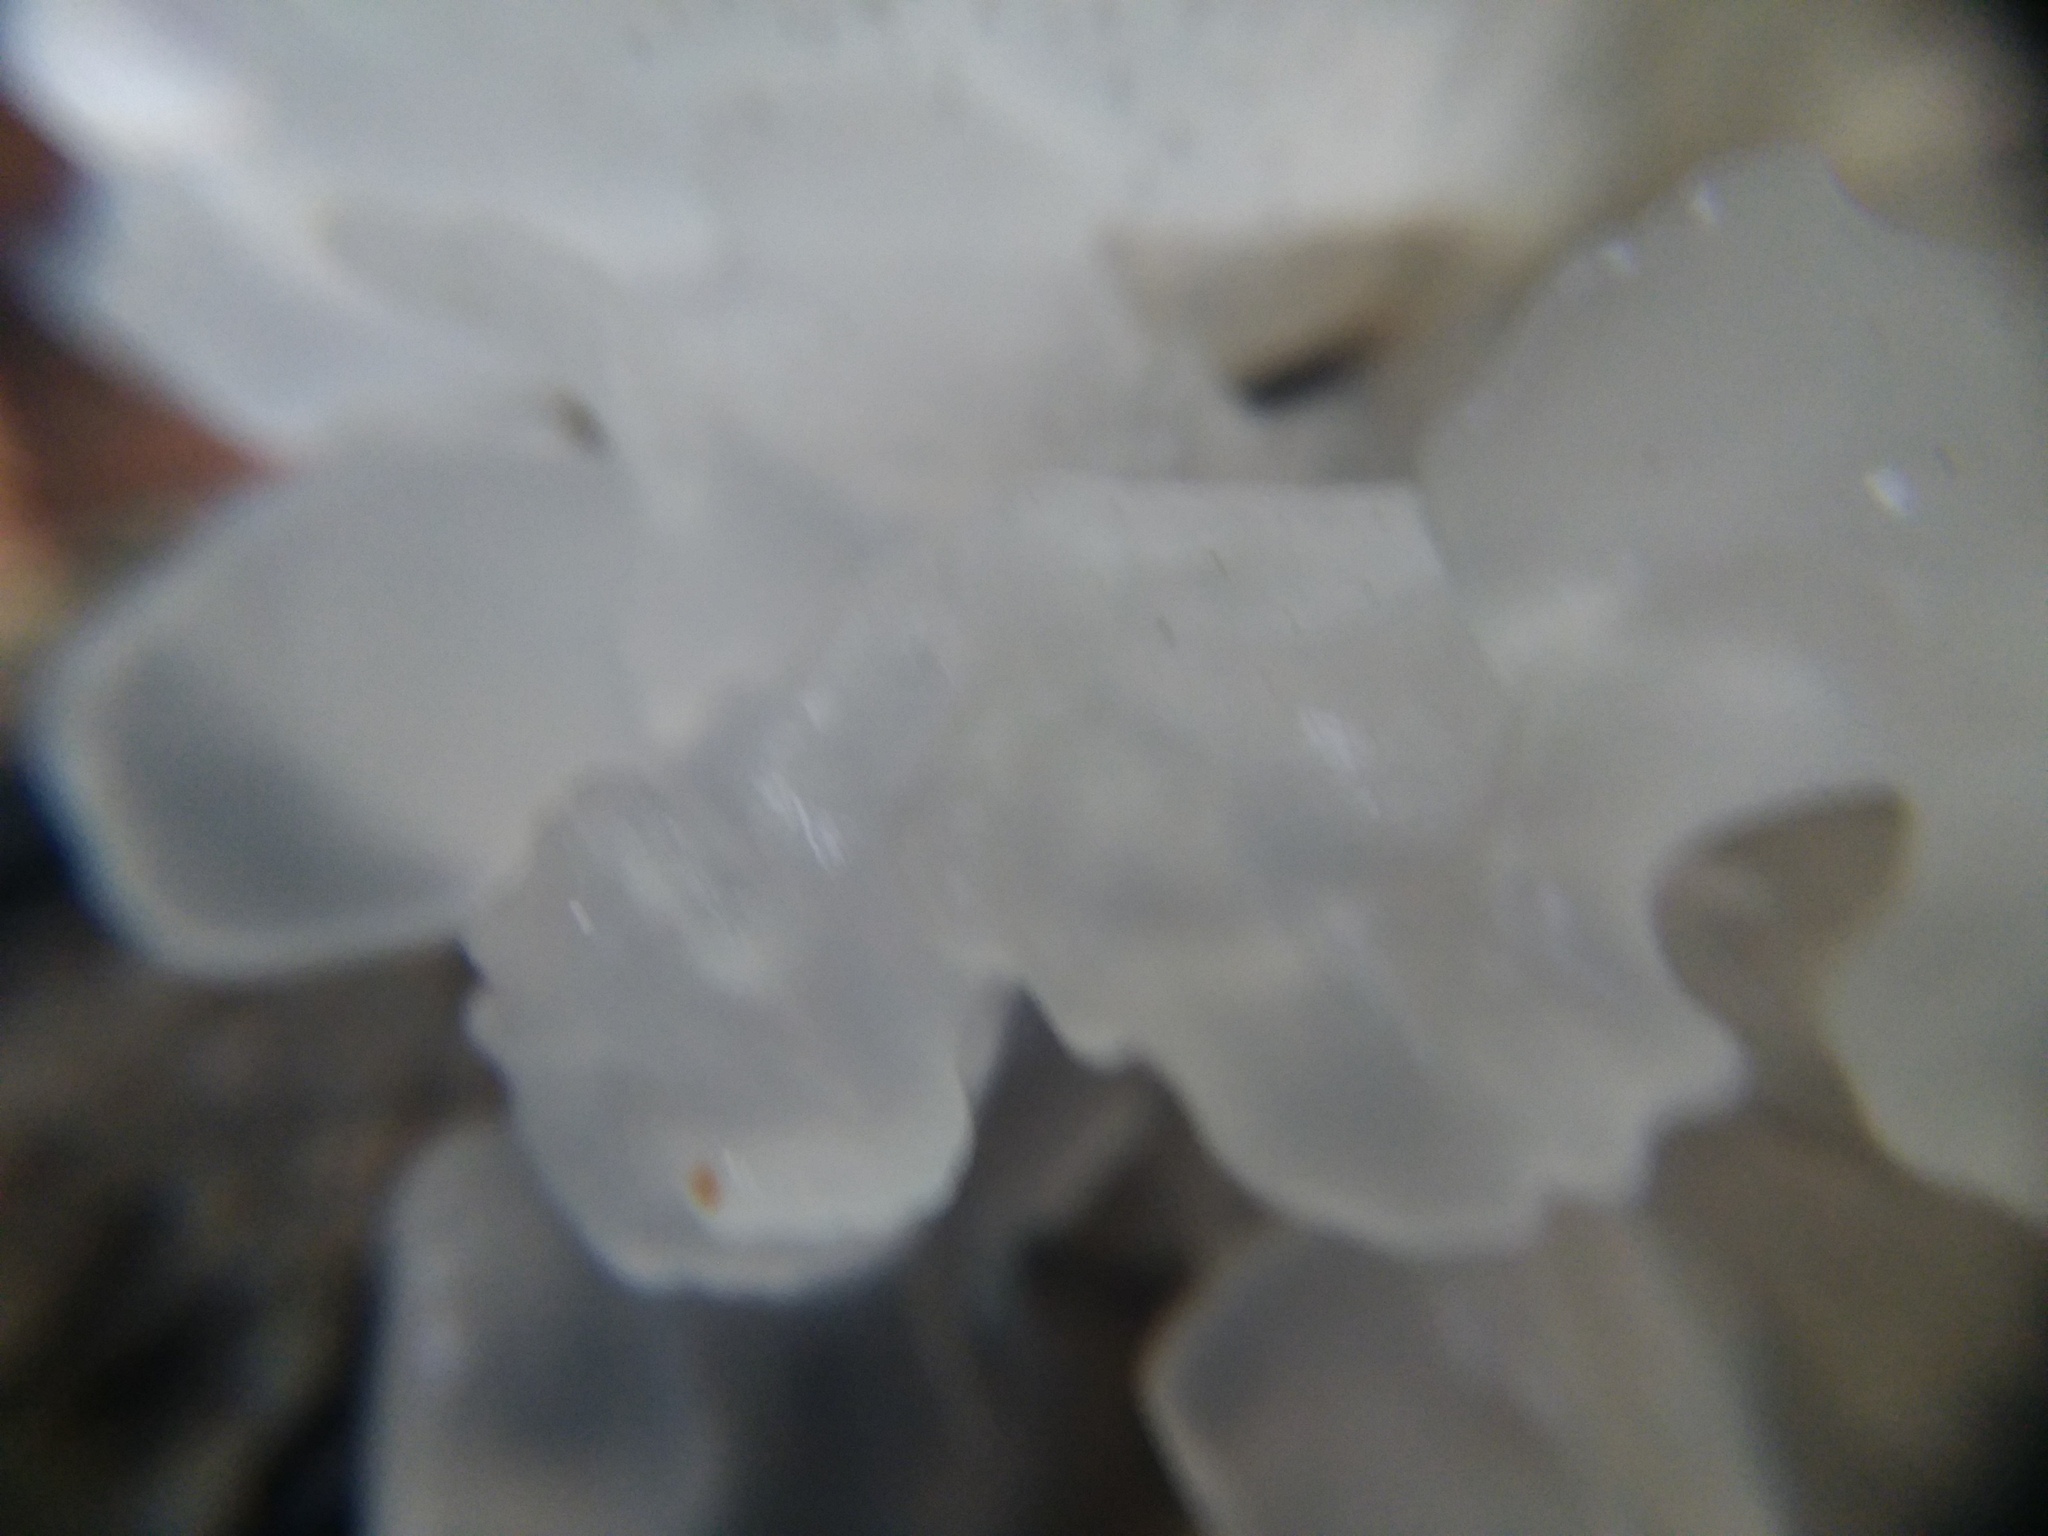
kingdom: Fungi
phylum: Basidiomycota
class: Tremellomycetes
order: Tremellales
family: Tremellaceae
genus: Tremella
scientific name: Tremella fuciformis
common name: Snow fungus
